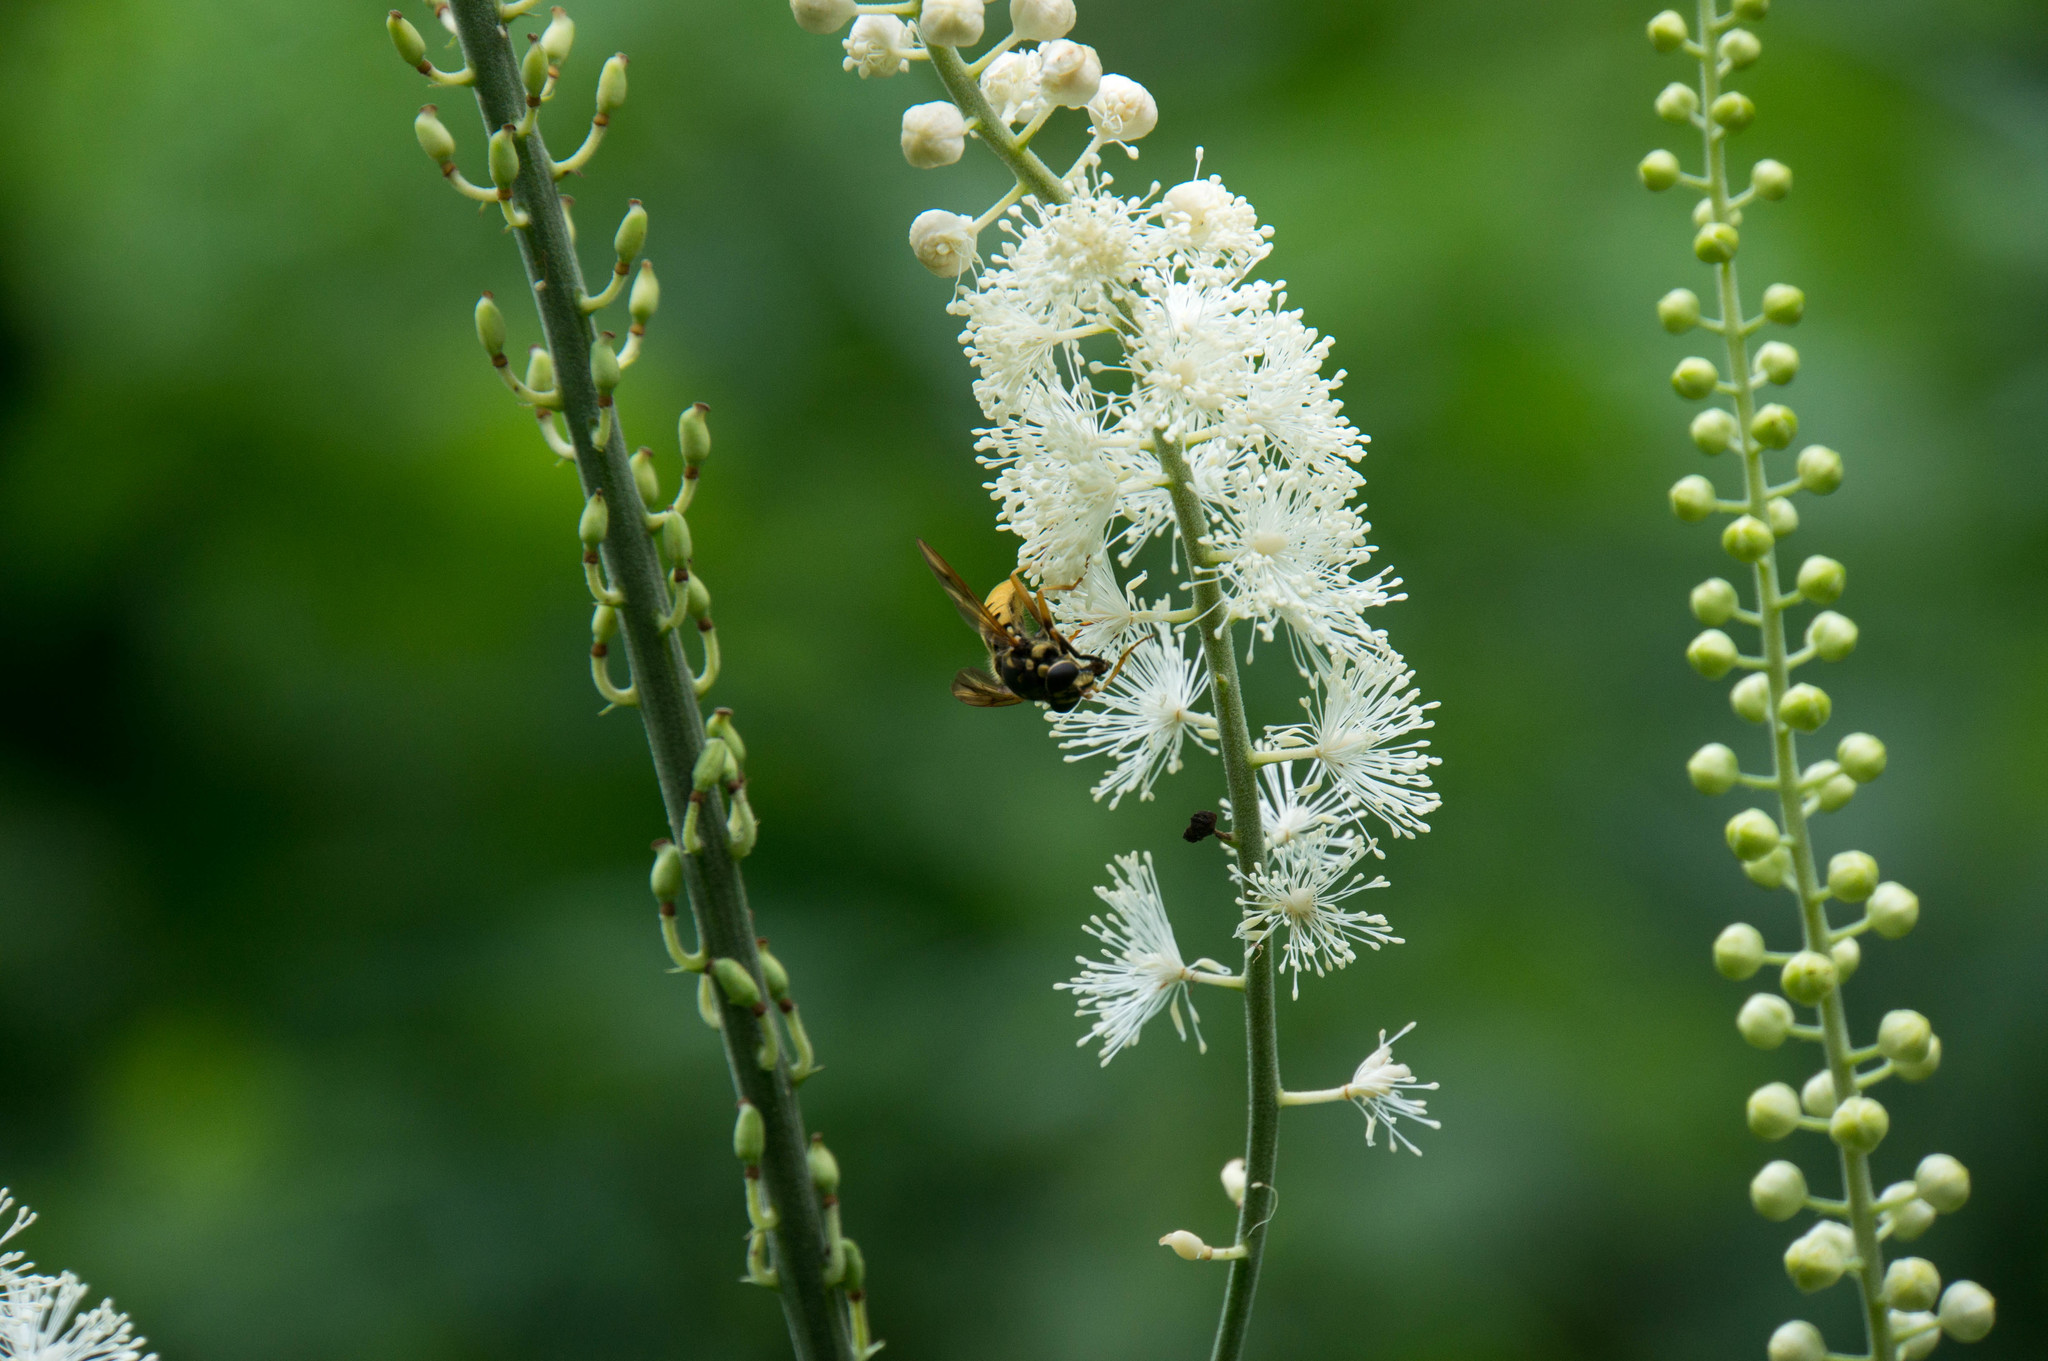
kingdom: Animalia
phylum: Arthropoda
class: Insecta
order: Diptera
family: Syrphidae
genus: Temnostoma
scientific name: Temnostoma alternans
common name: Wasp-like falsehorn
